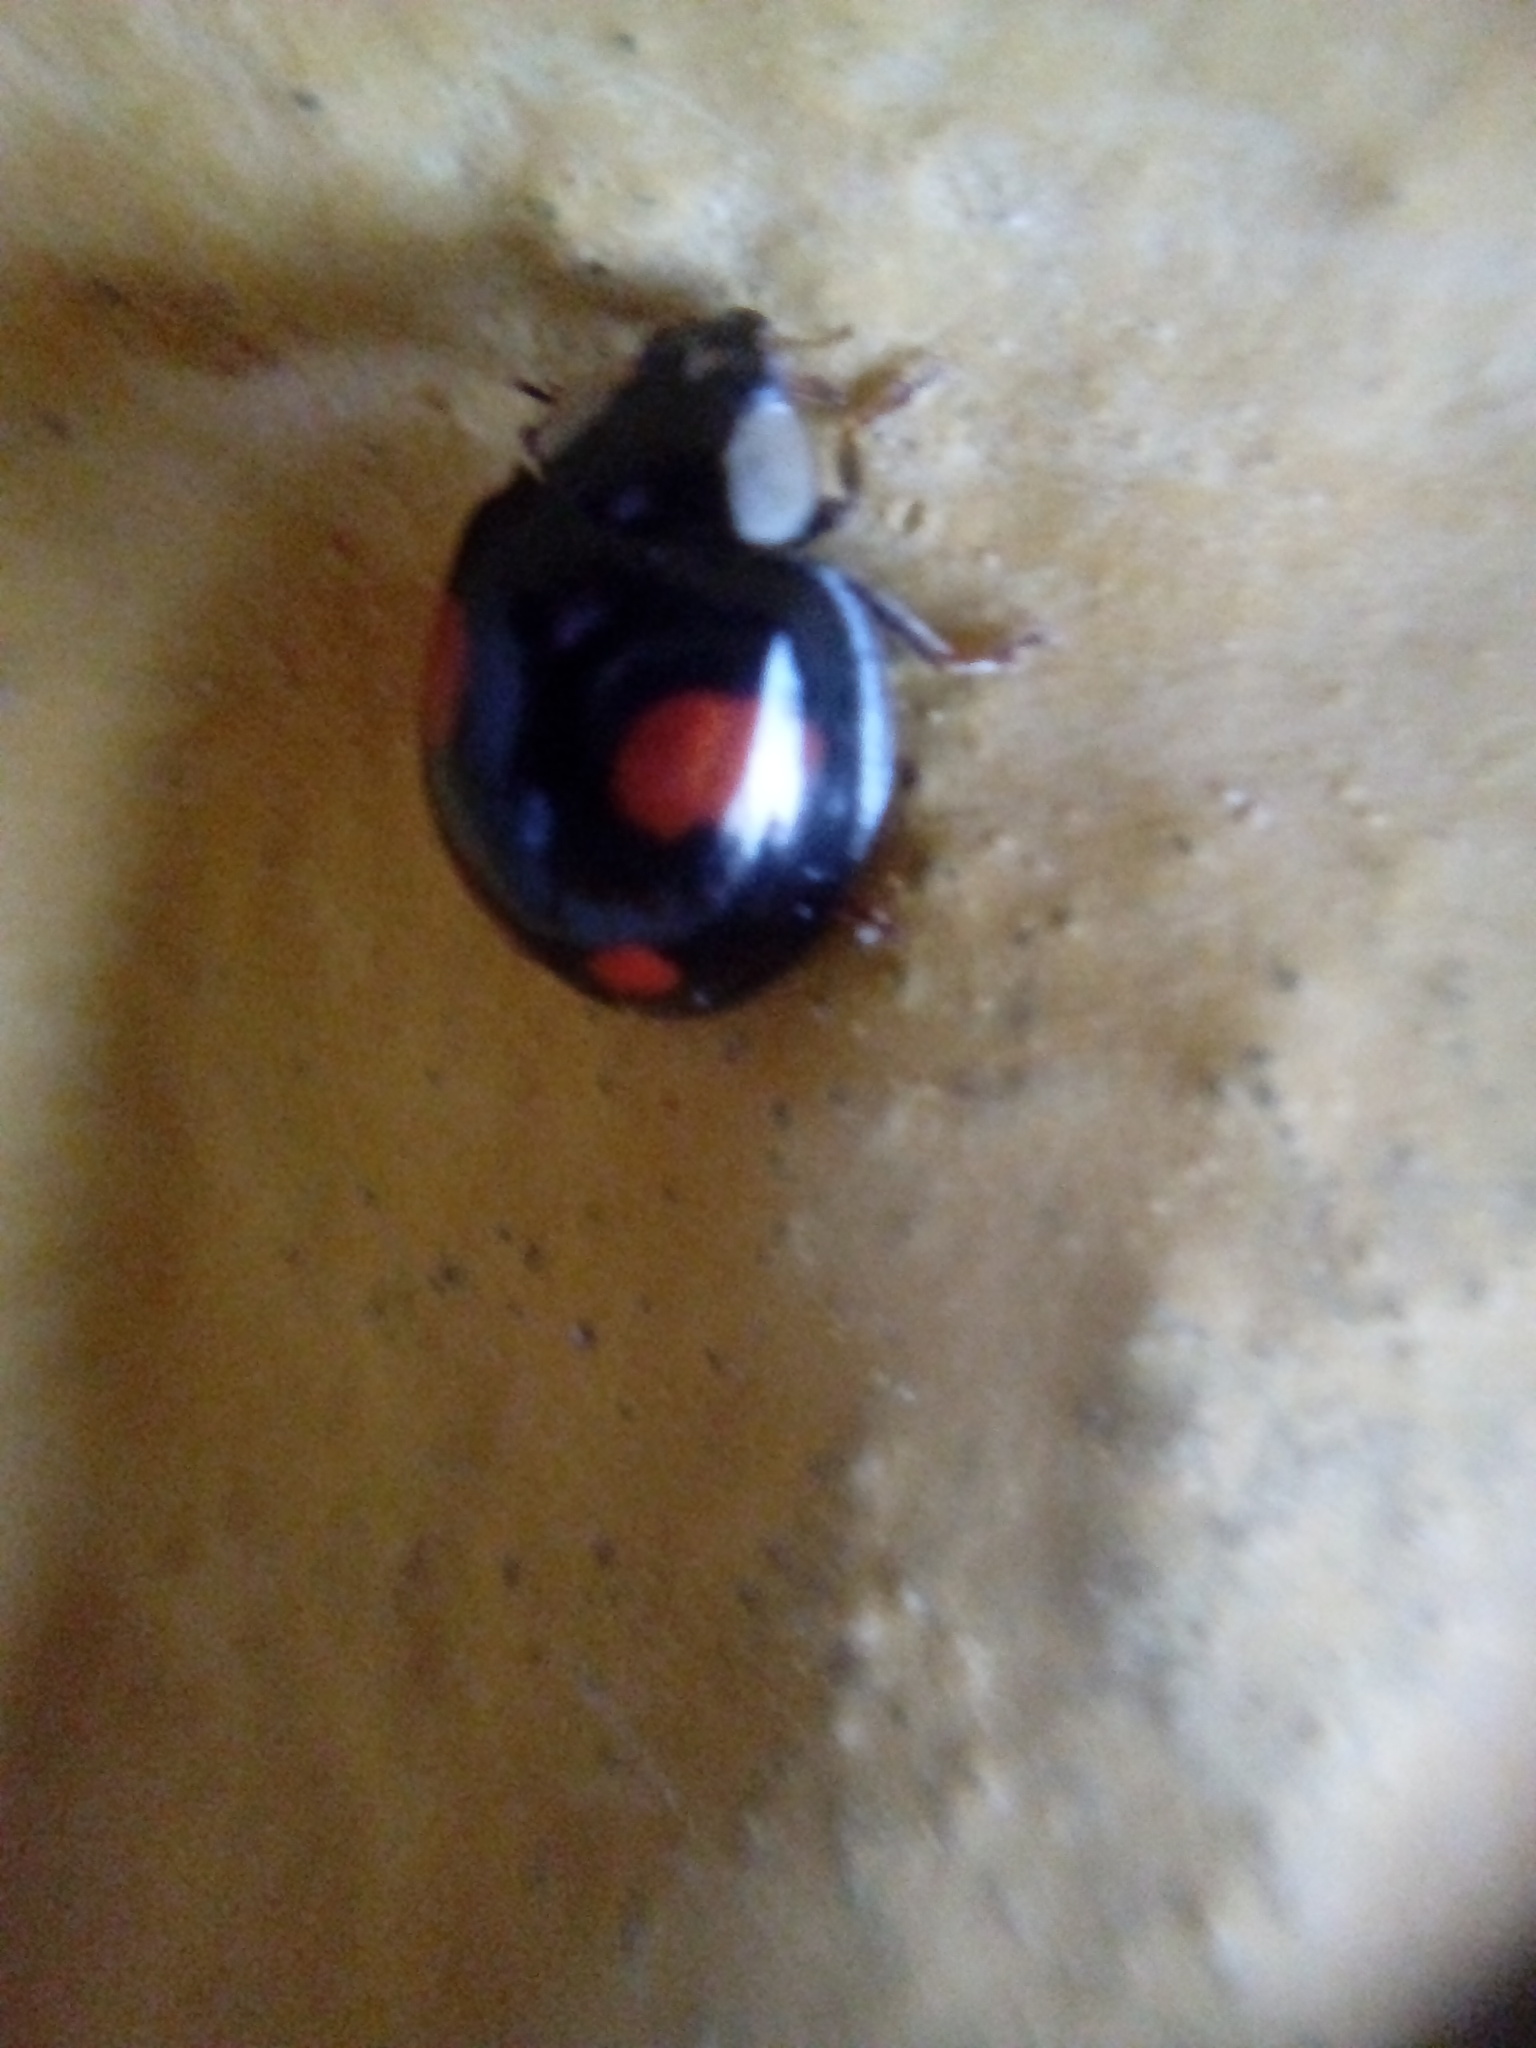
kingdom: Animalia
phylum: Arthropoda
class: Insecta
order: Coleoptera
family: Coccinellidae
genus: Harmonia
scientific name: Harmonia axyridis
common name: Harlequin ladybird
